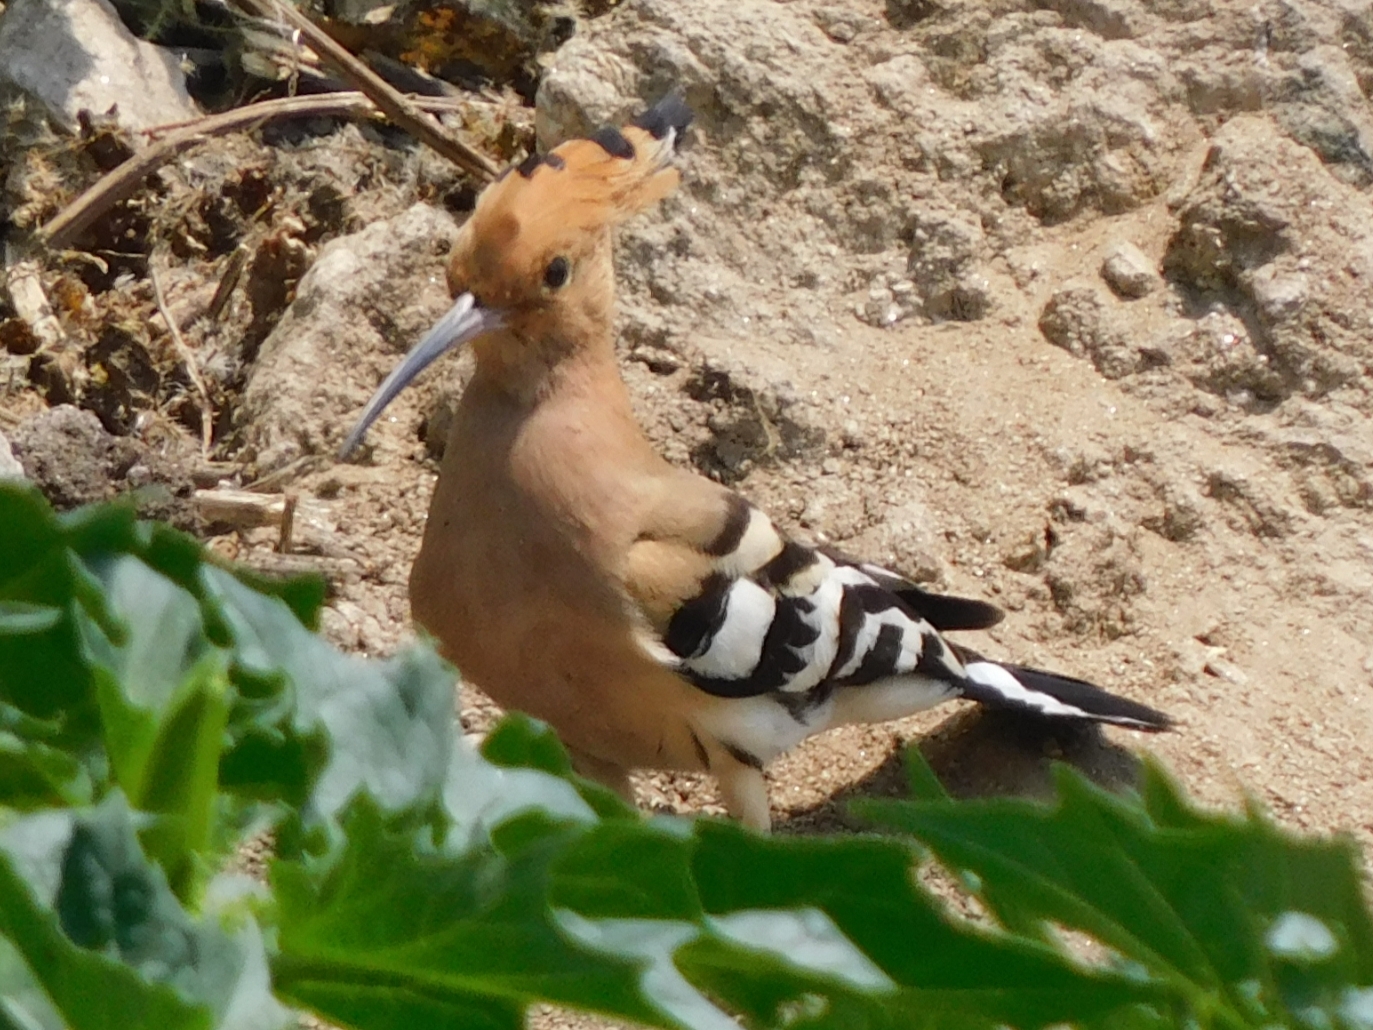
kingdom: Animalia
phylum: Chordata
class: Aves
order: Bucerotiformes
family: Upupidae
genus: Upupa
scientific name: Upupa epops
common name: Eurasian hoopoe
